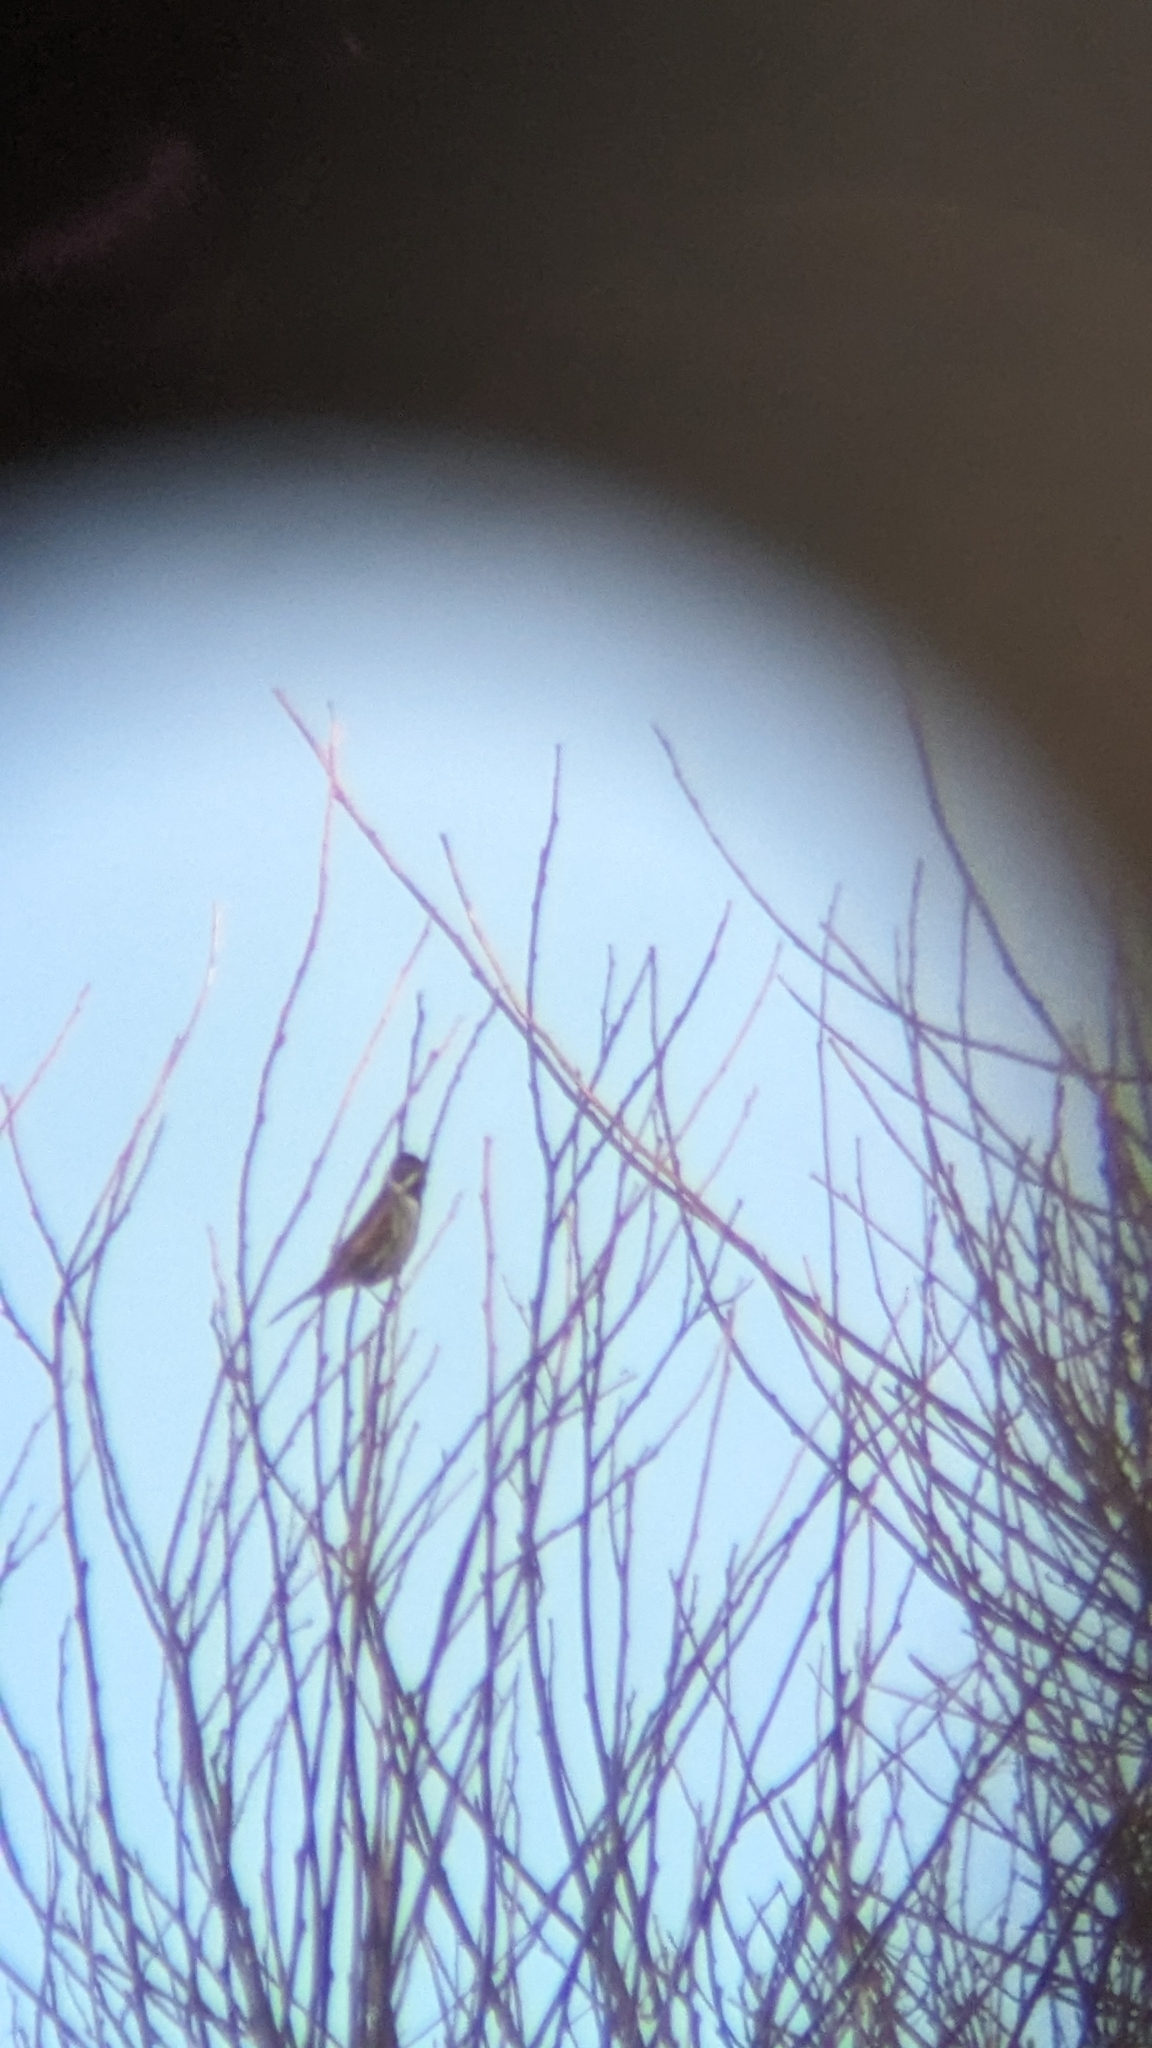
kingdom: Animalia
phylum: Chordata
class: Aves
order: Passeriformes
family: Emberizidae
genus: Emberiza
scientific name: Emberiza schoeniclus
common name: Reed bunting
